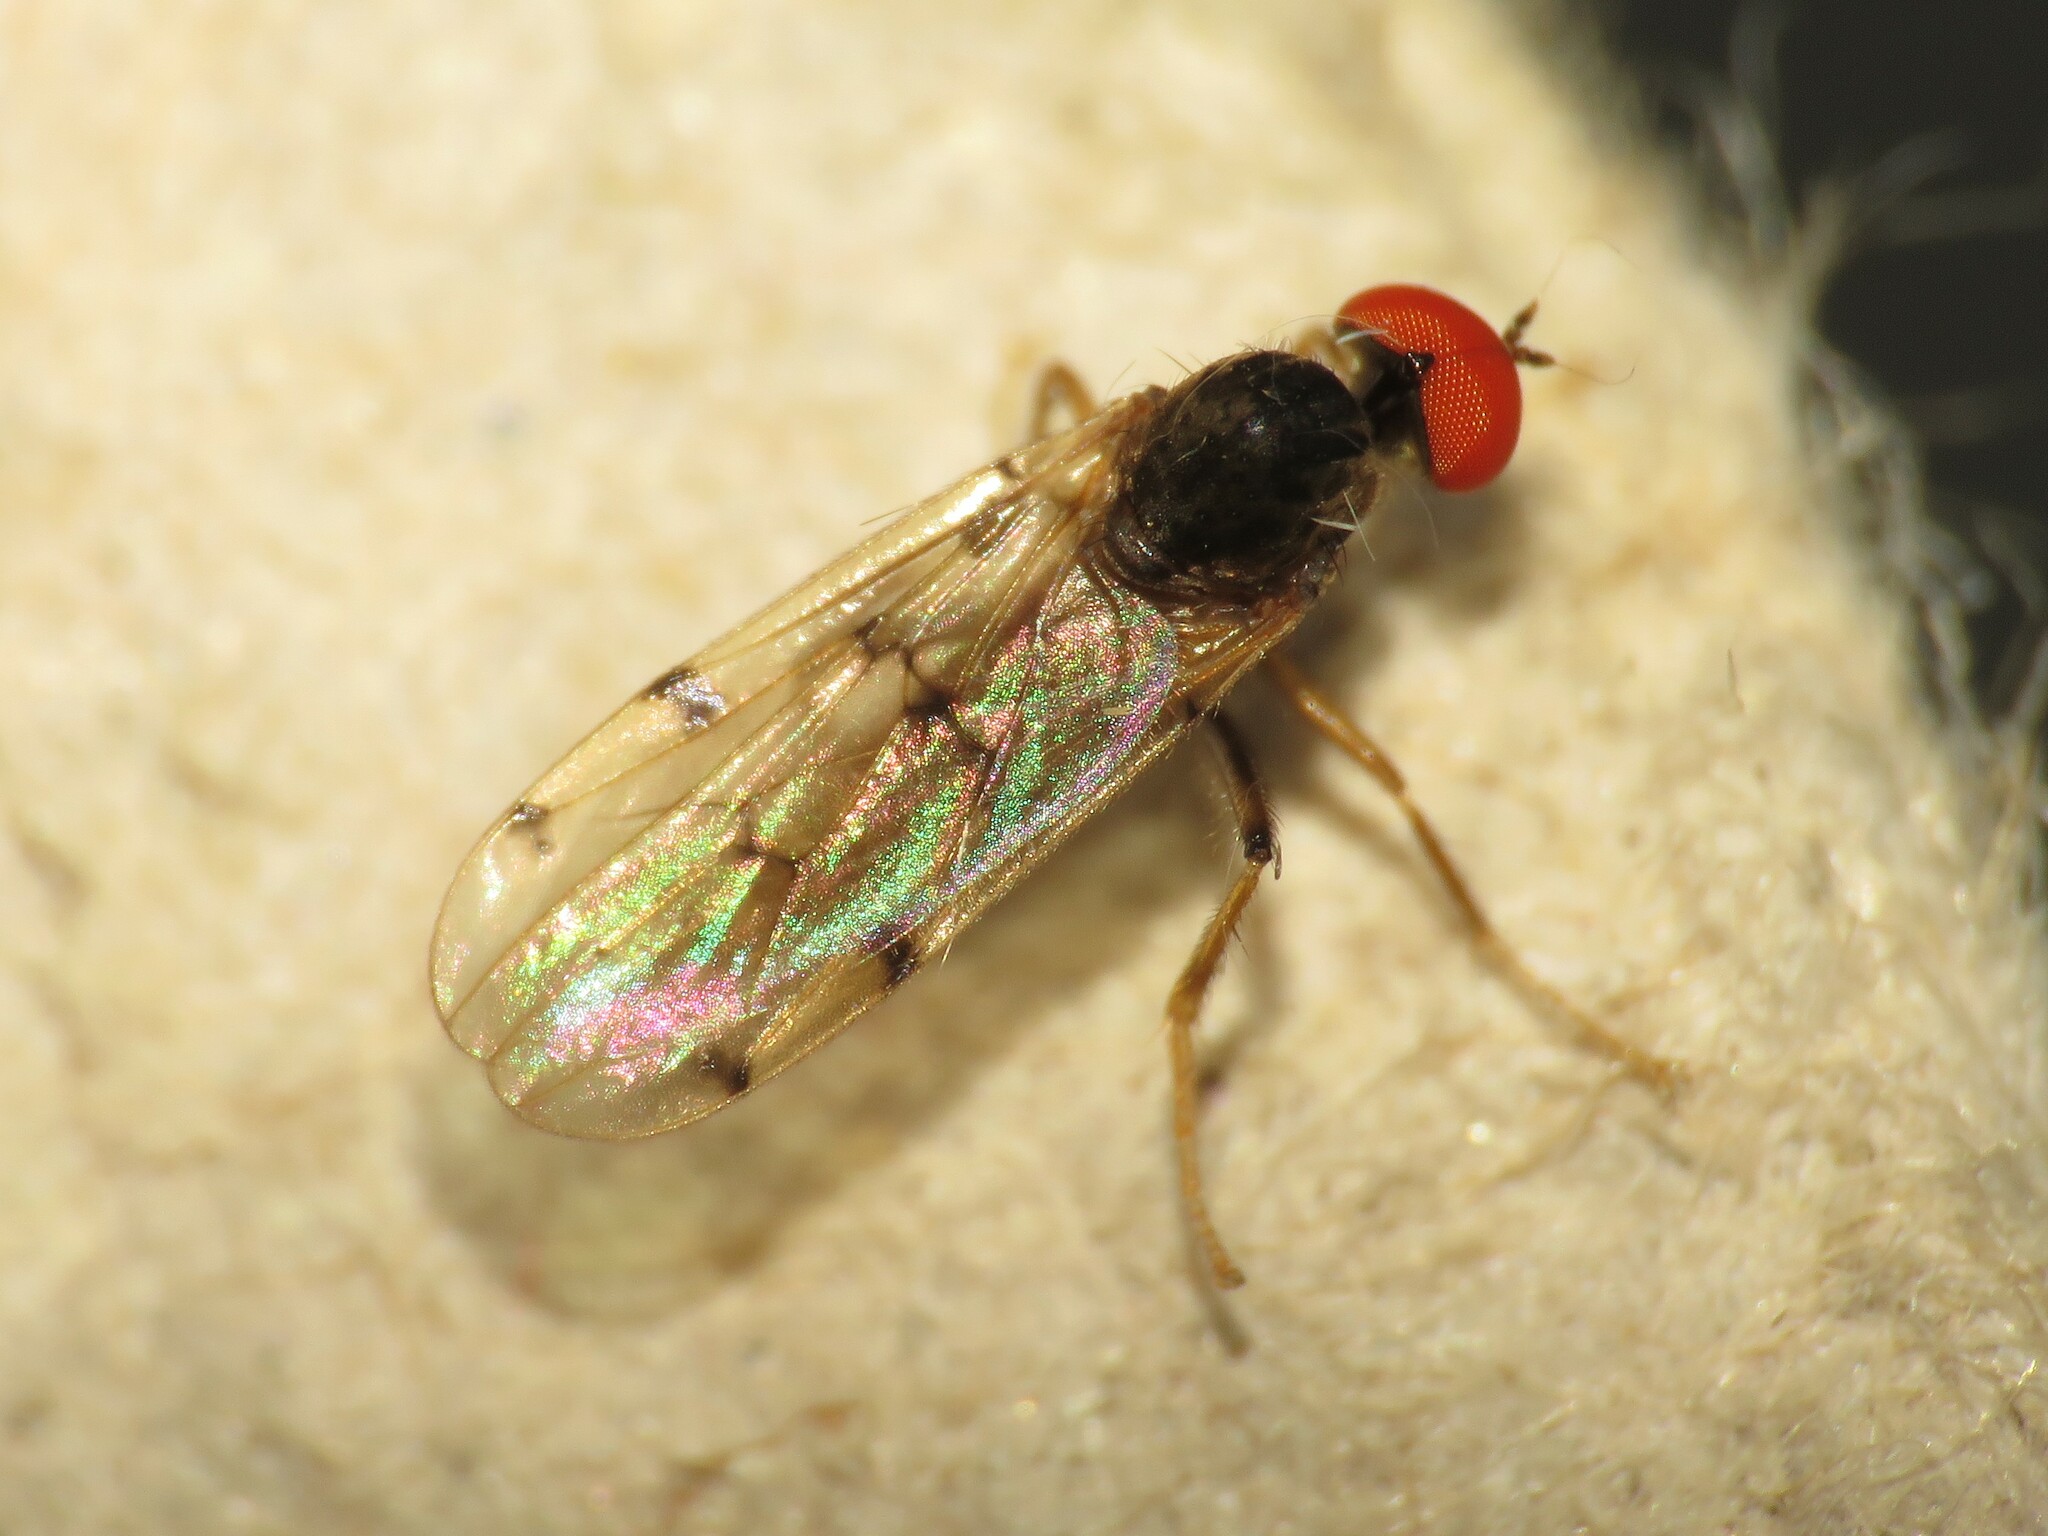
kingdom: Animalia
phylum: Arthropoda
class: Insecta
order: Diptera
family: Hybotidae
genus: Syneches
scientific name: Syneches simplex
